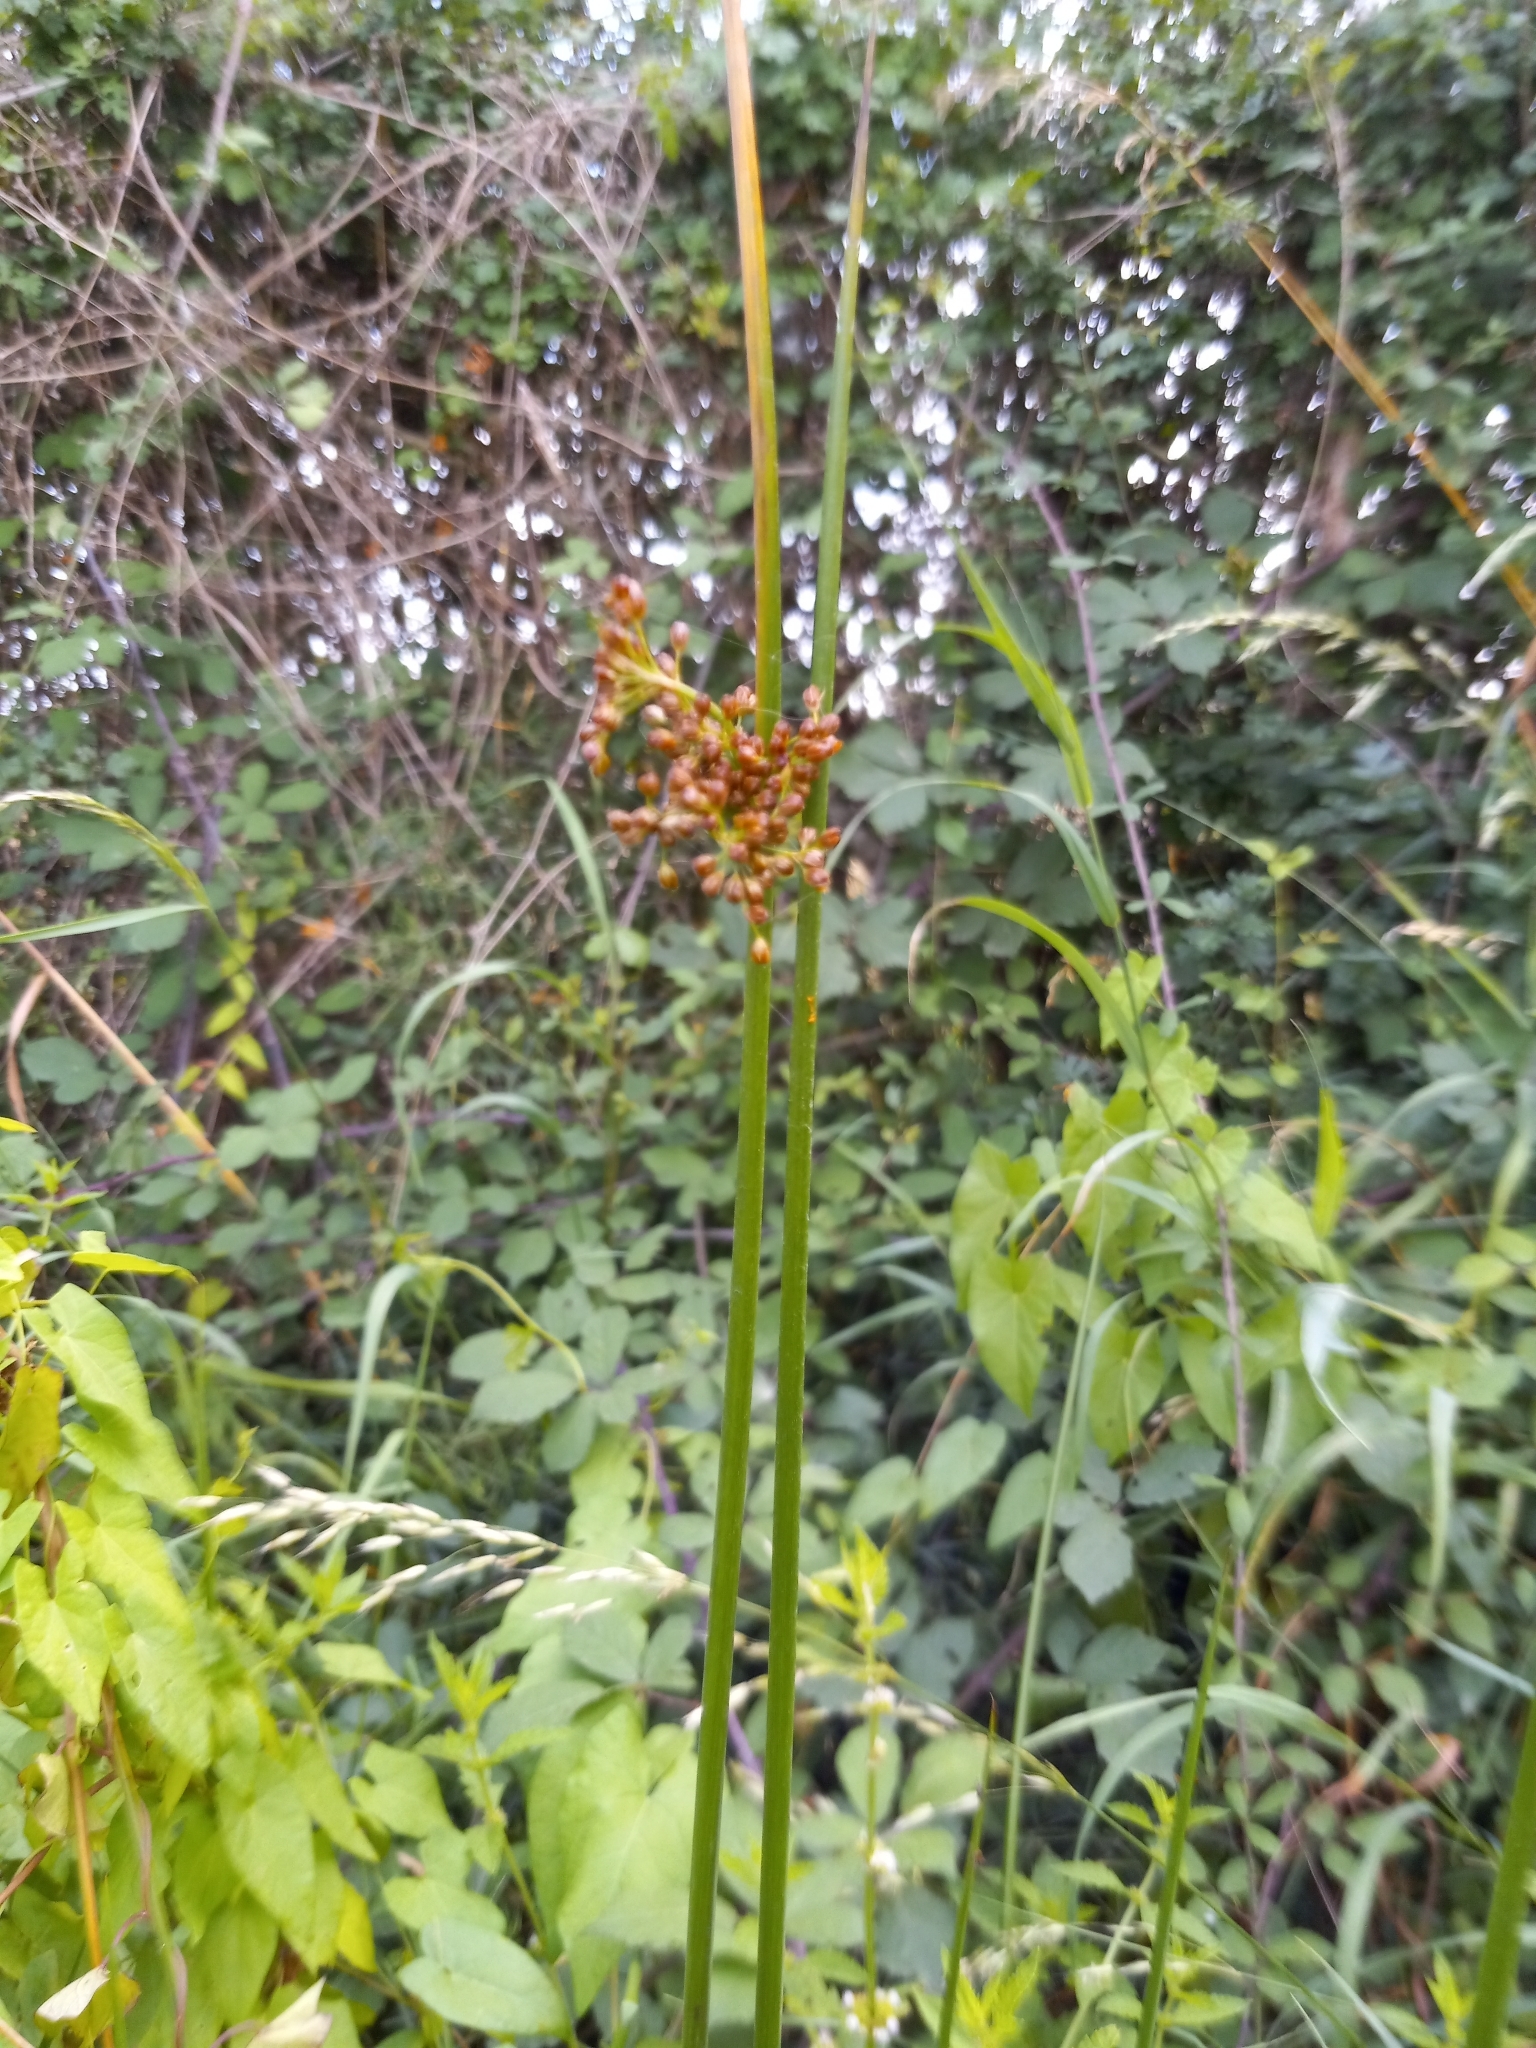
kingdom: Plantae
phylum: Tracheophyta
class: Liliopsida
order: Poales
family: Juncaceae
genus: Juncus
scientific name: Juncus effusus
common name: Soft rush
